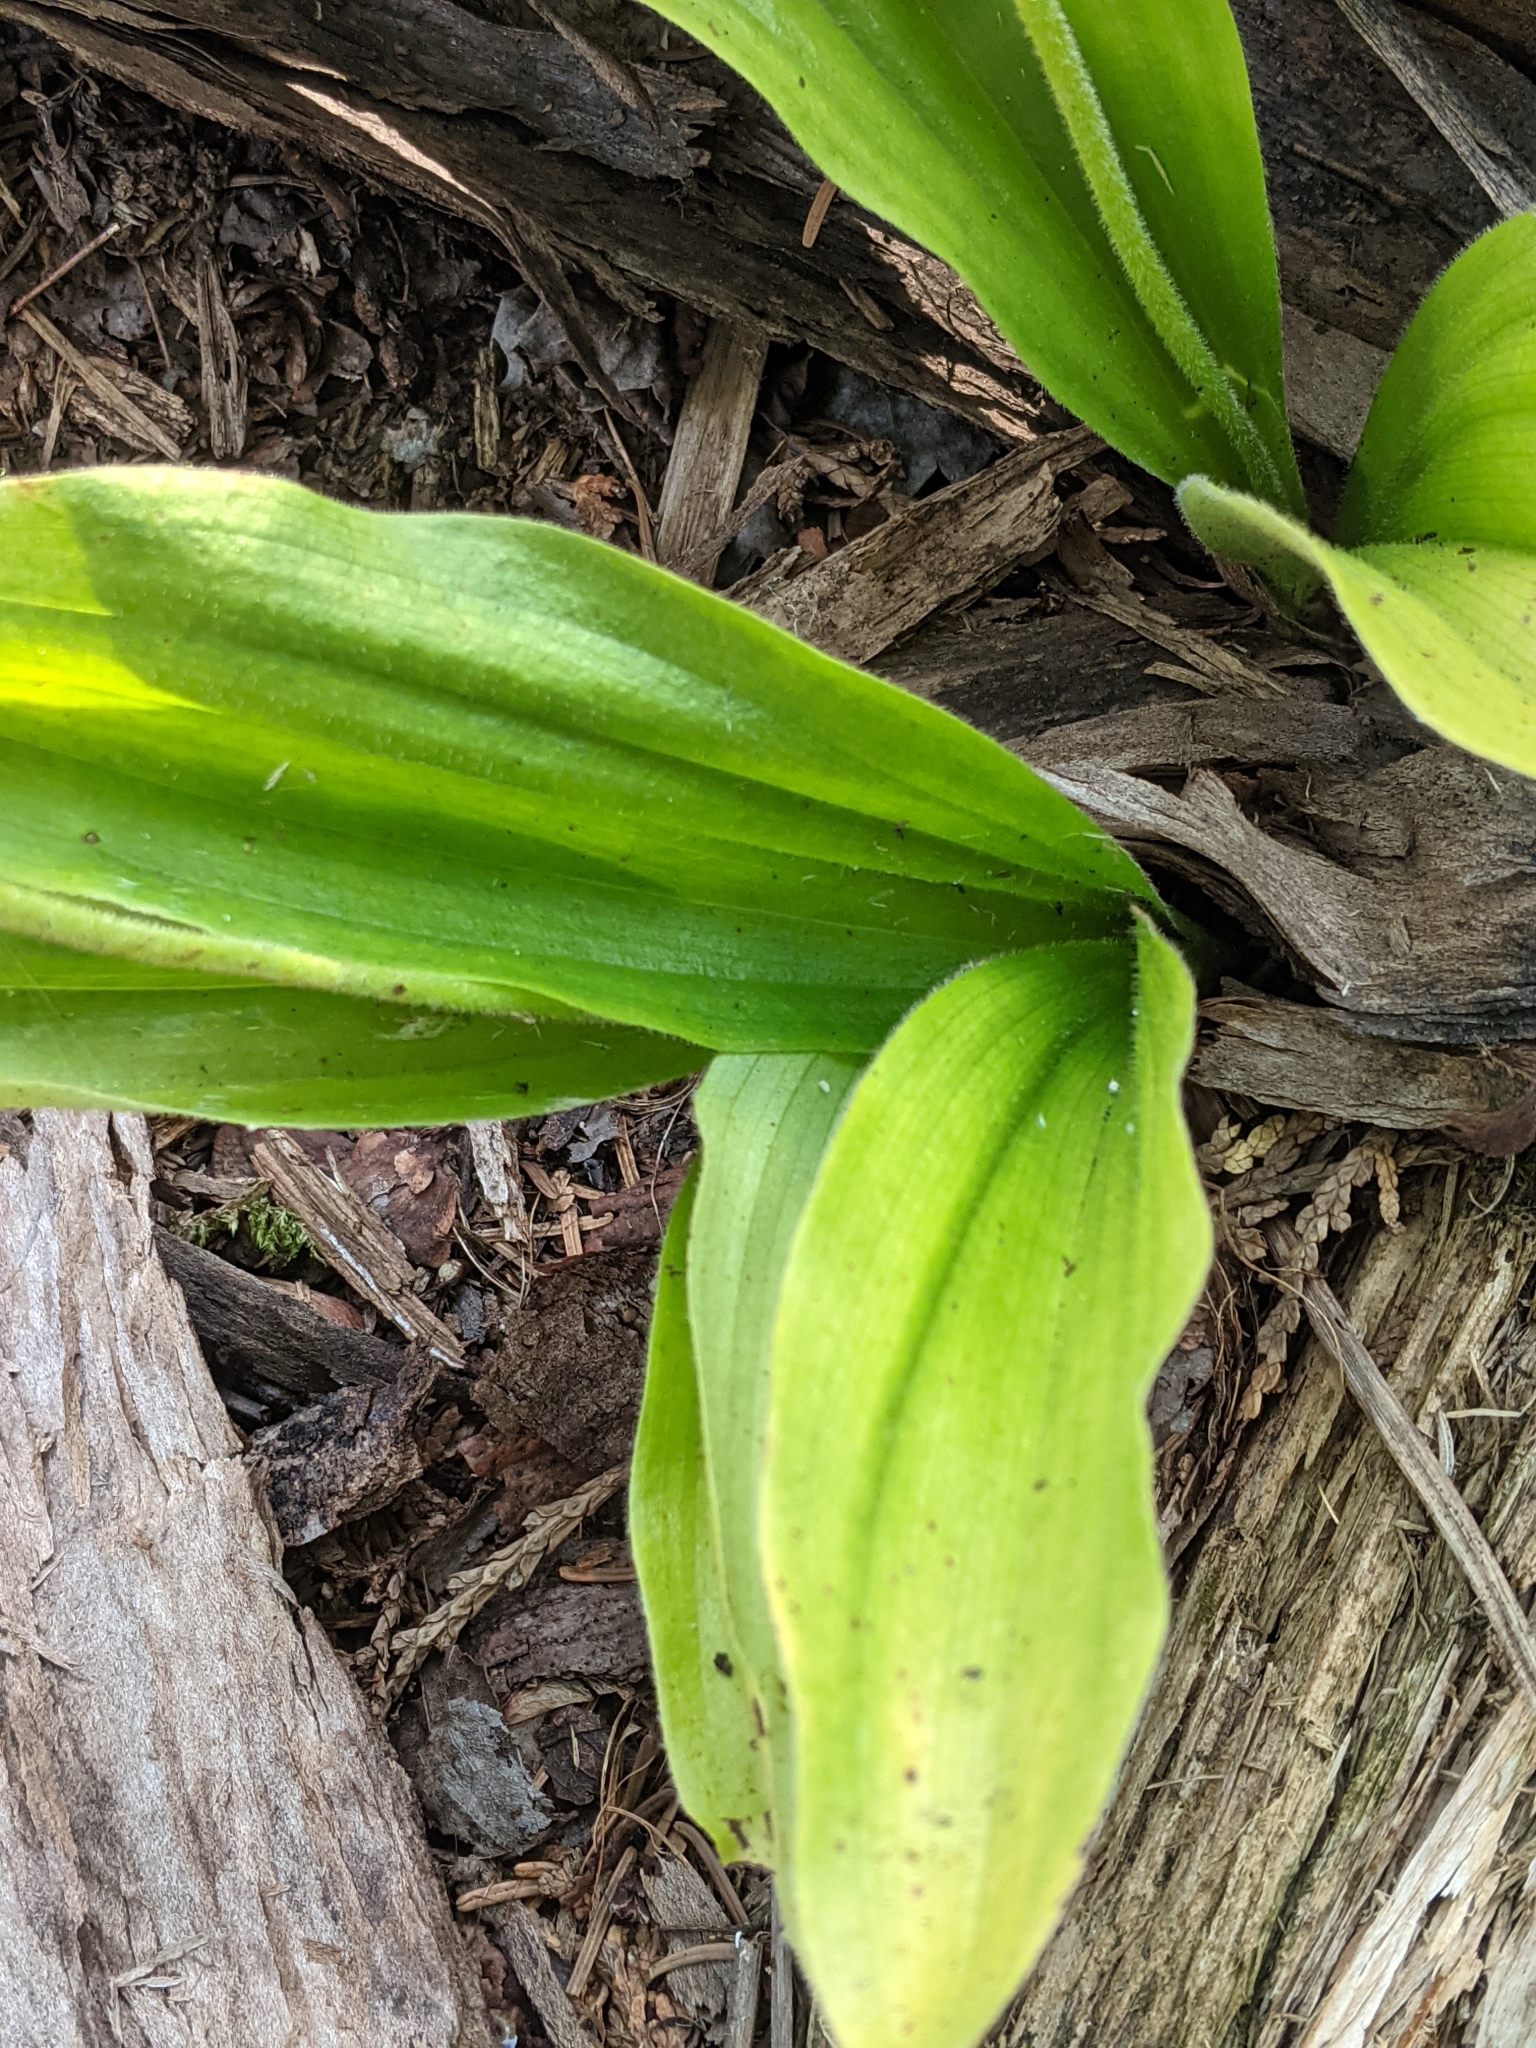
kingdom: Plantae
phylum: Tracheophyta
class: Liliopsida
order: Asparagales
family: Orchidaceae
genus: Cypripedium
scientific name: Cypripedium acaule
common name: Pink lady's-slipper
